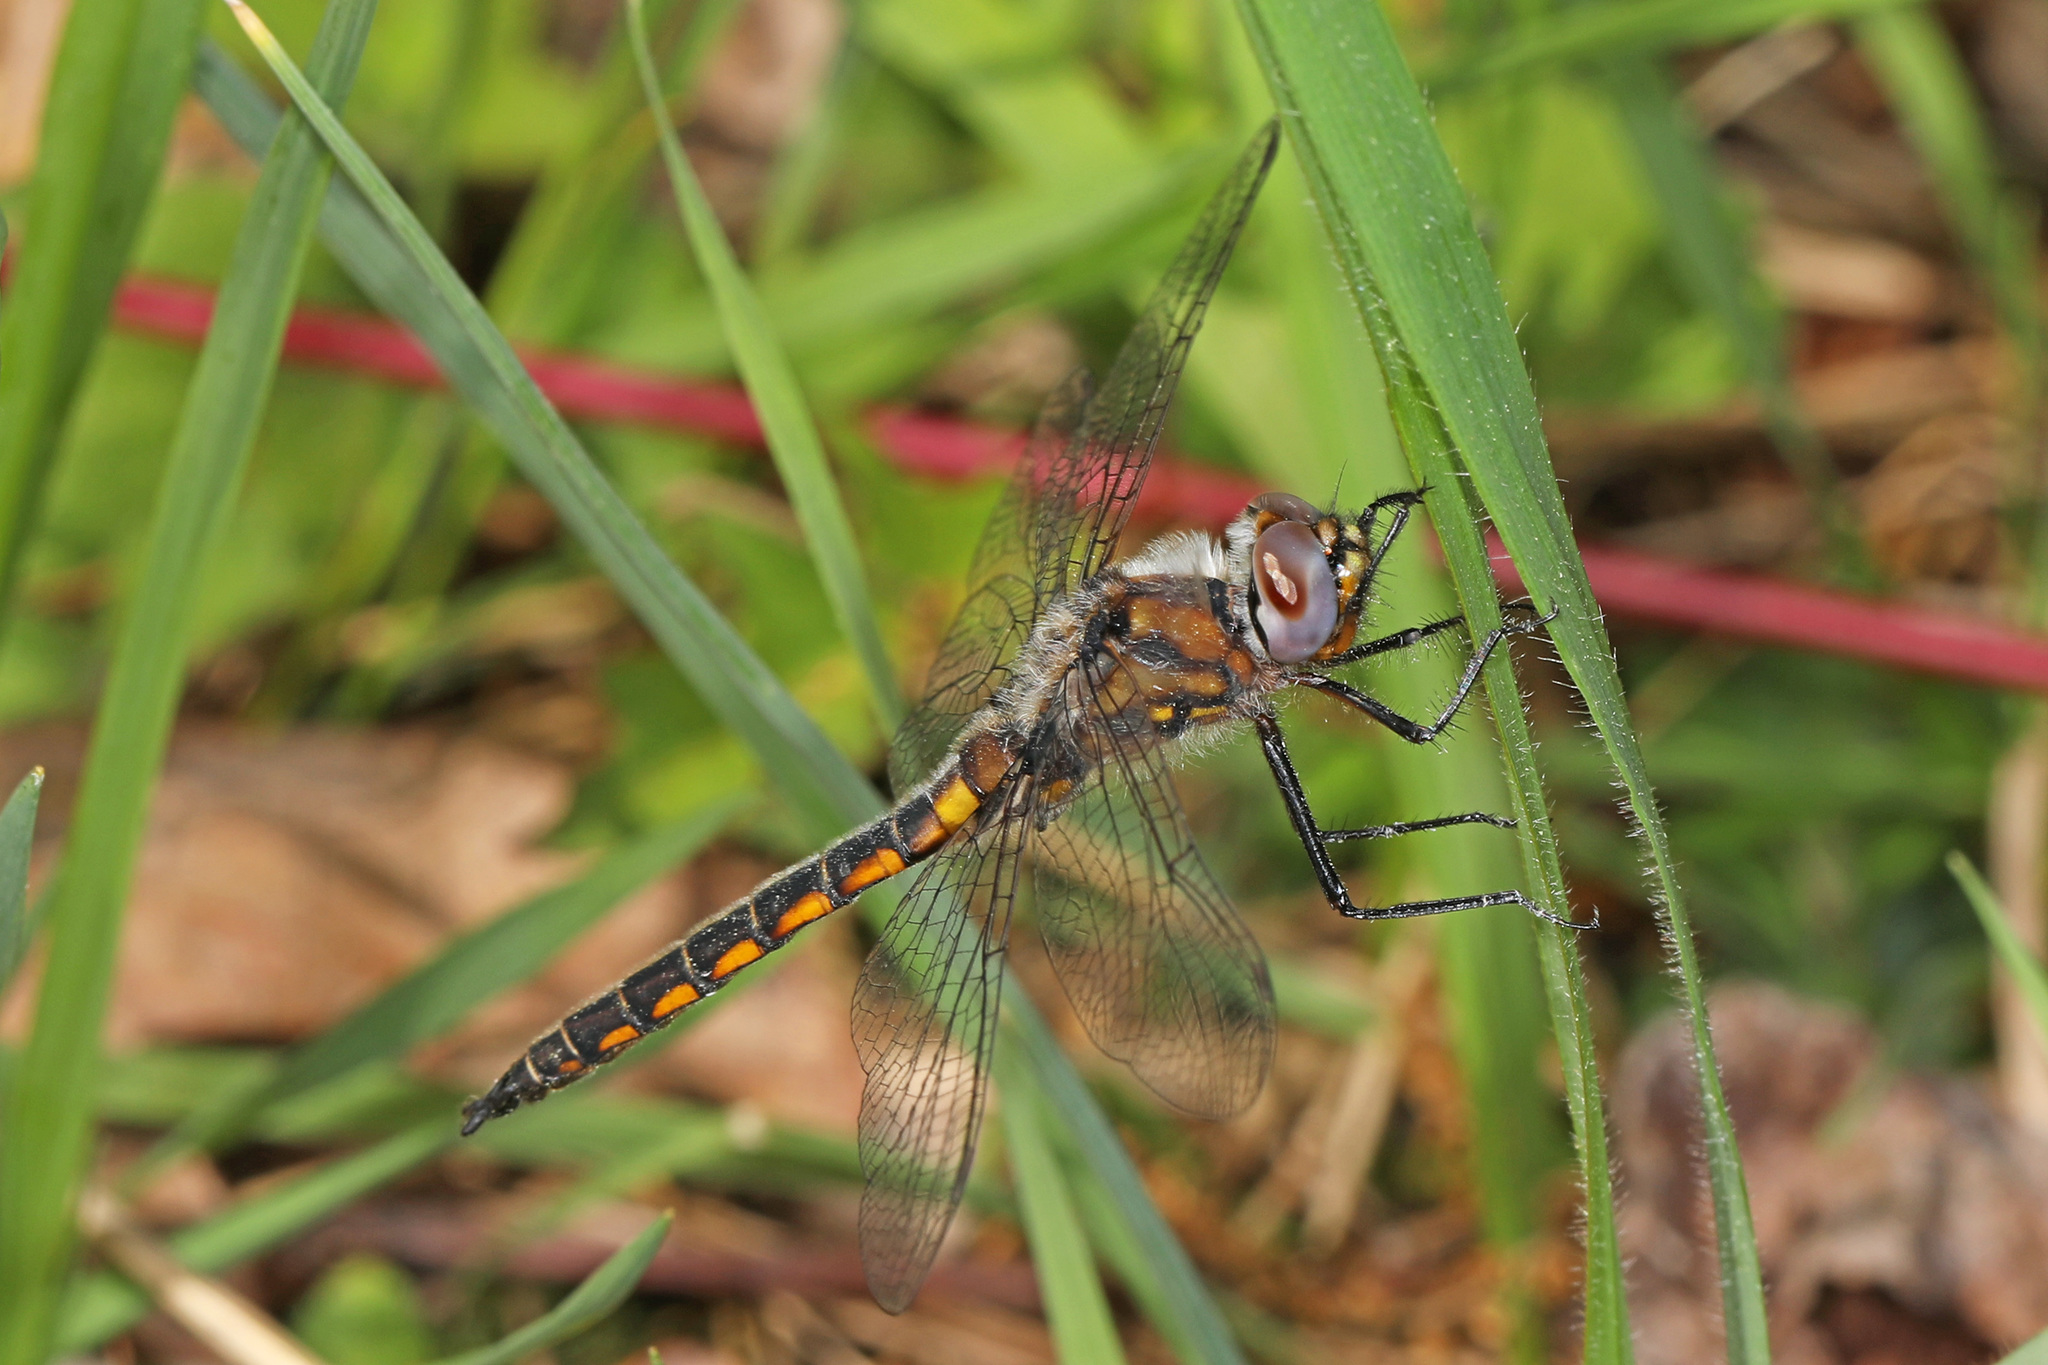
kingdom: Animalia
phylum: Arthropoda
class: Insecta
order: Odonata
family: Corduliidae
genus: Epitheca
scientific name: Epitheca cynosura
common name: Common baskettail
